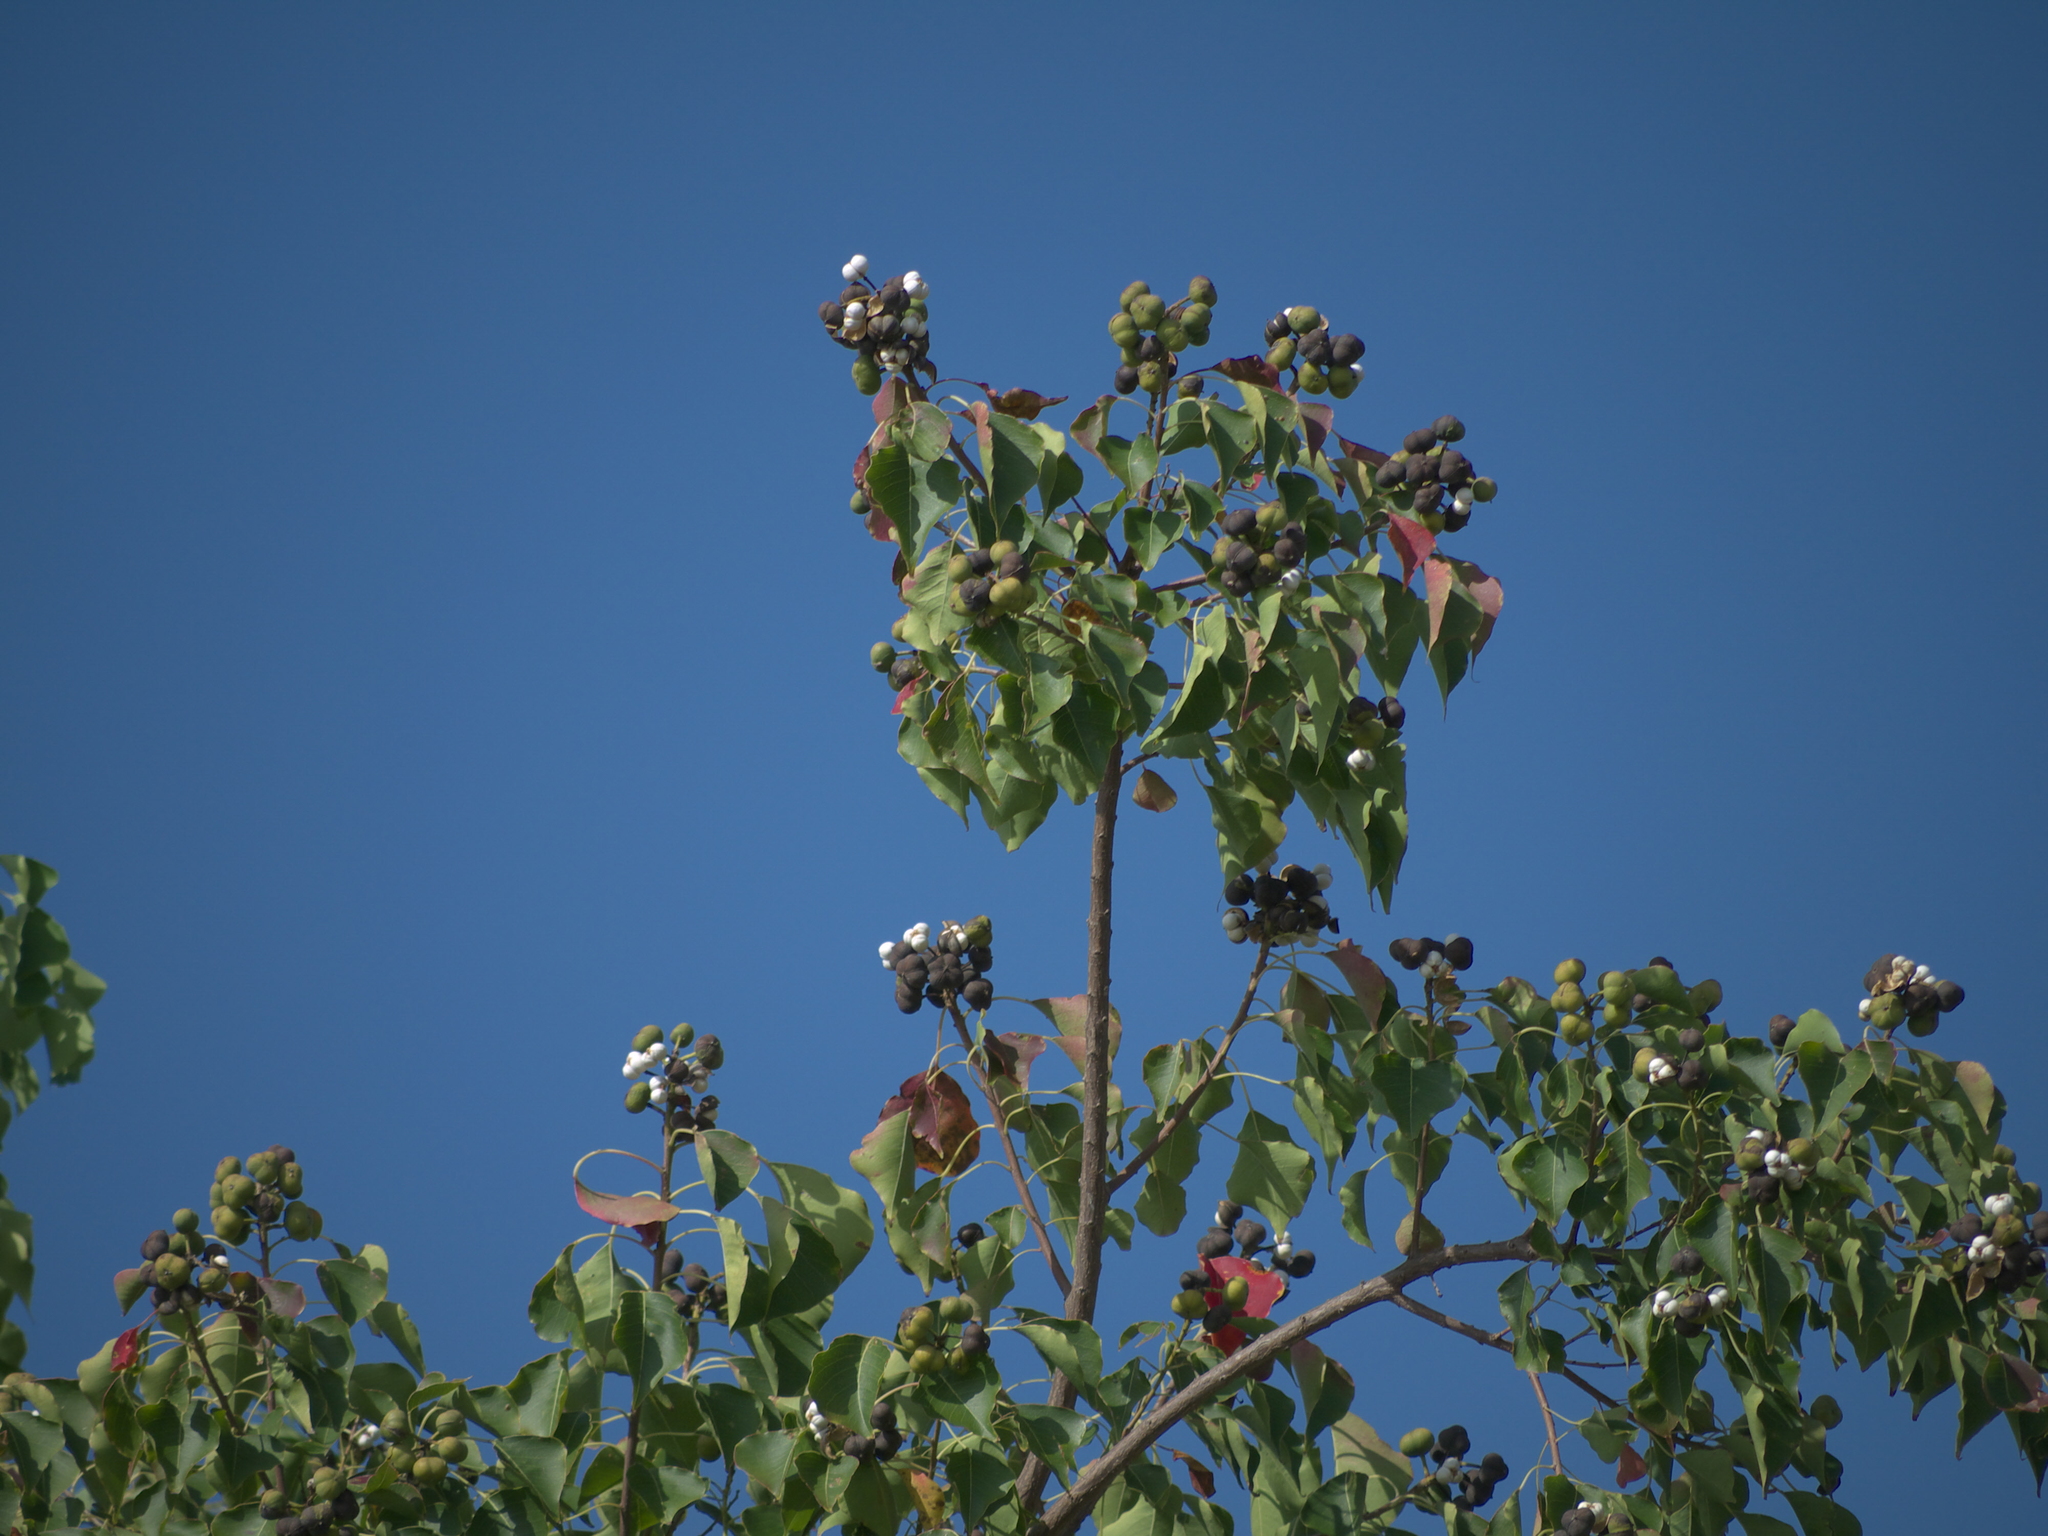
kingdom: Plantae
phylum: Tracheophyta
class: Magnoliopsida
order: Malpighiales
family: Euphorbiaceae
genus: Triadica
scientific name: Triadica sebifera
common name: Chinese tallow
